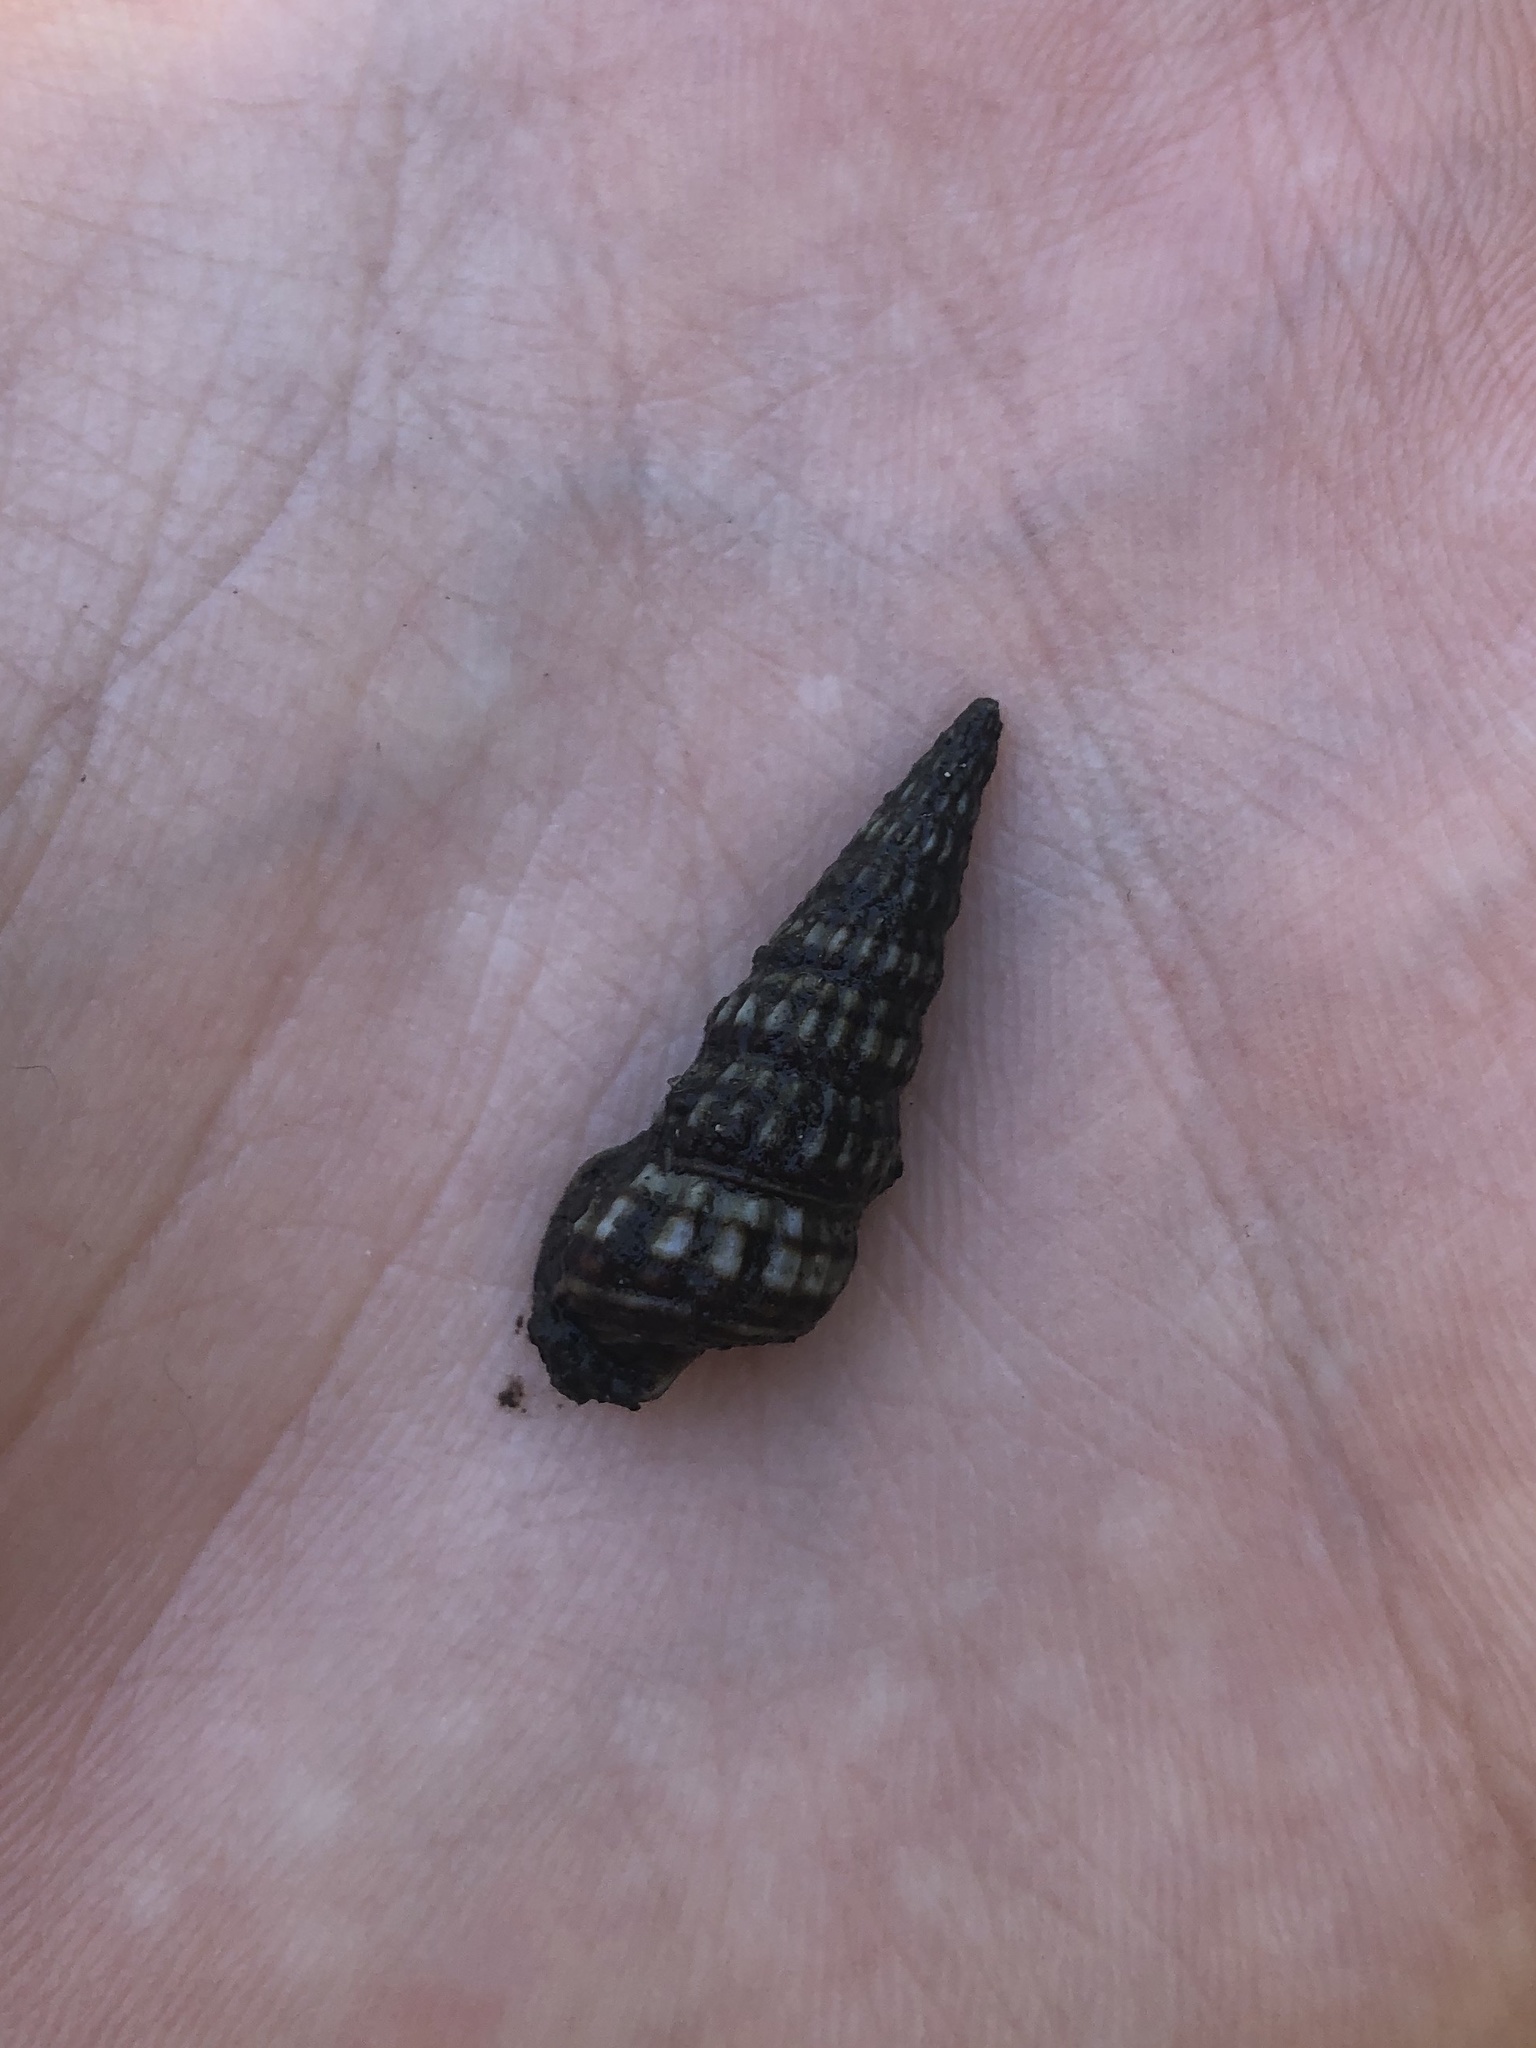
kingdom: Animalia
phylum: Mollusca
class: Gastropoda
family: Potamididae
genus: Cerithideopsis
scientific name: Cerithideopsis scalariformis
